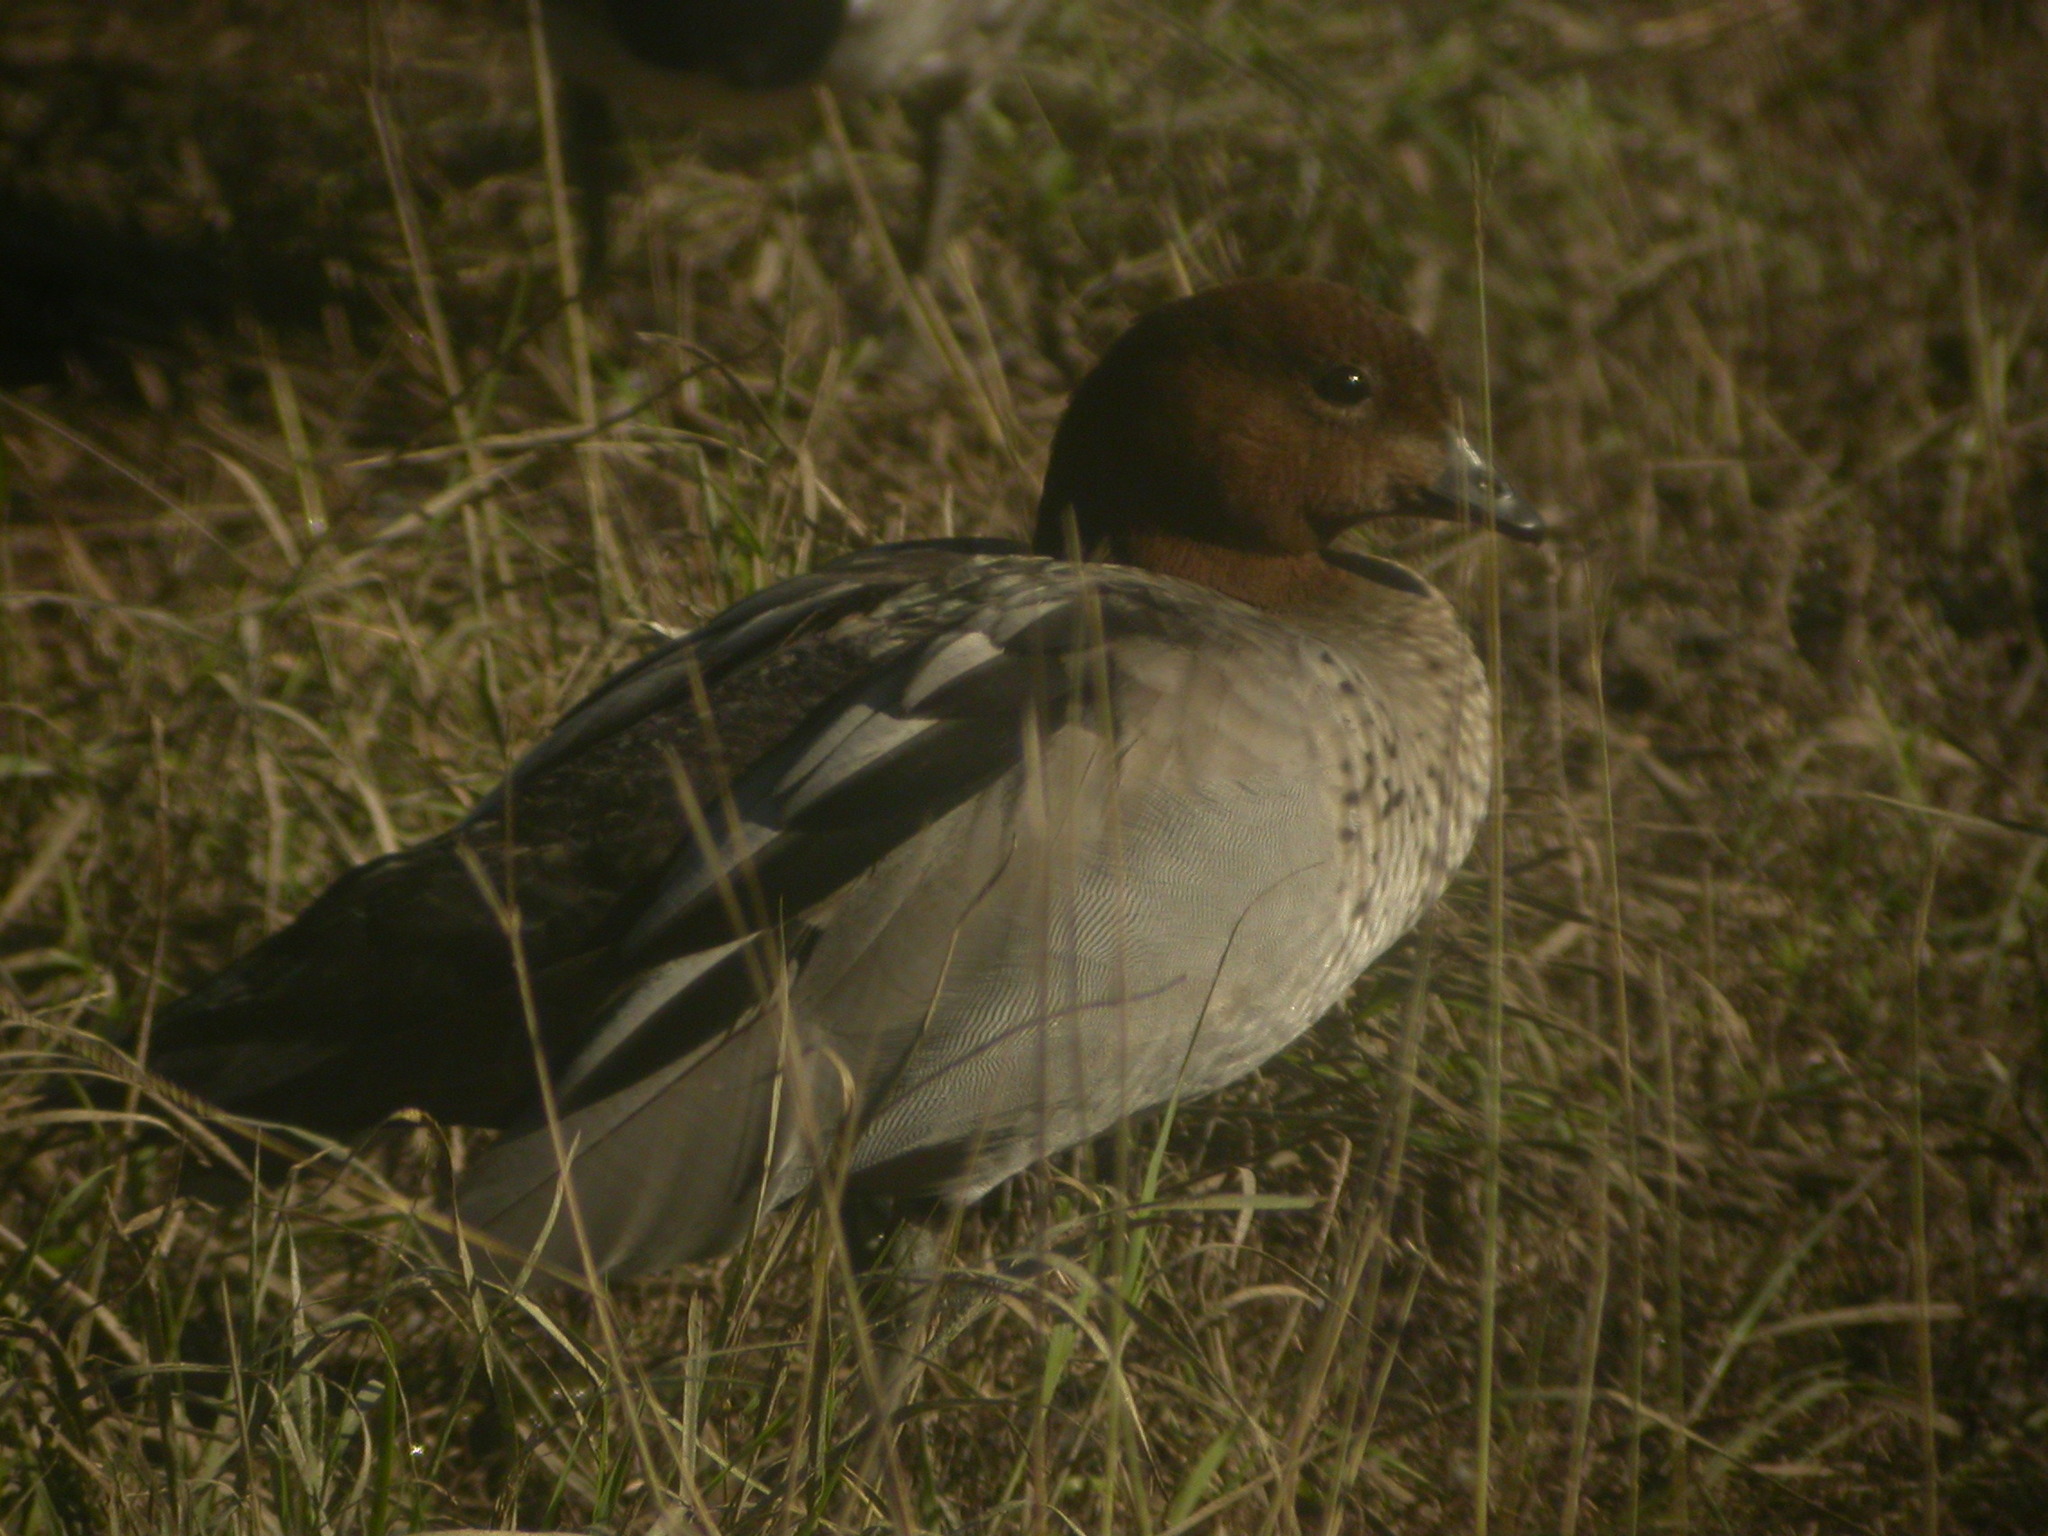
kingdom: Animalia
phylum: Chordata
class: Aves
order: Anseriformes
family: Anatidae
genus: Chenonetta
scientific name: Chenonetta jubata
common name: Maned duck
